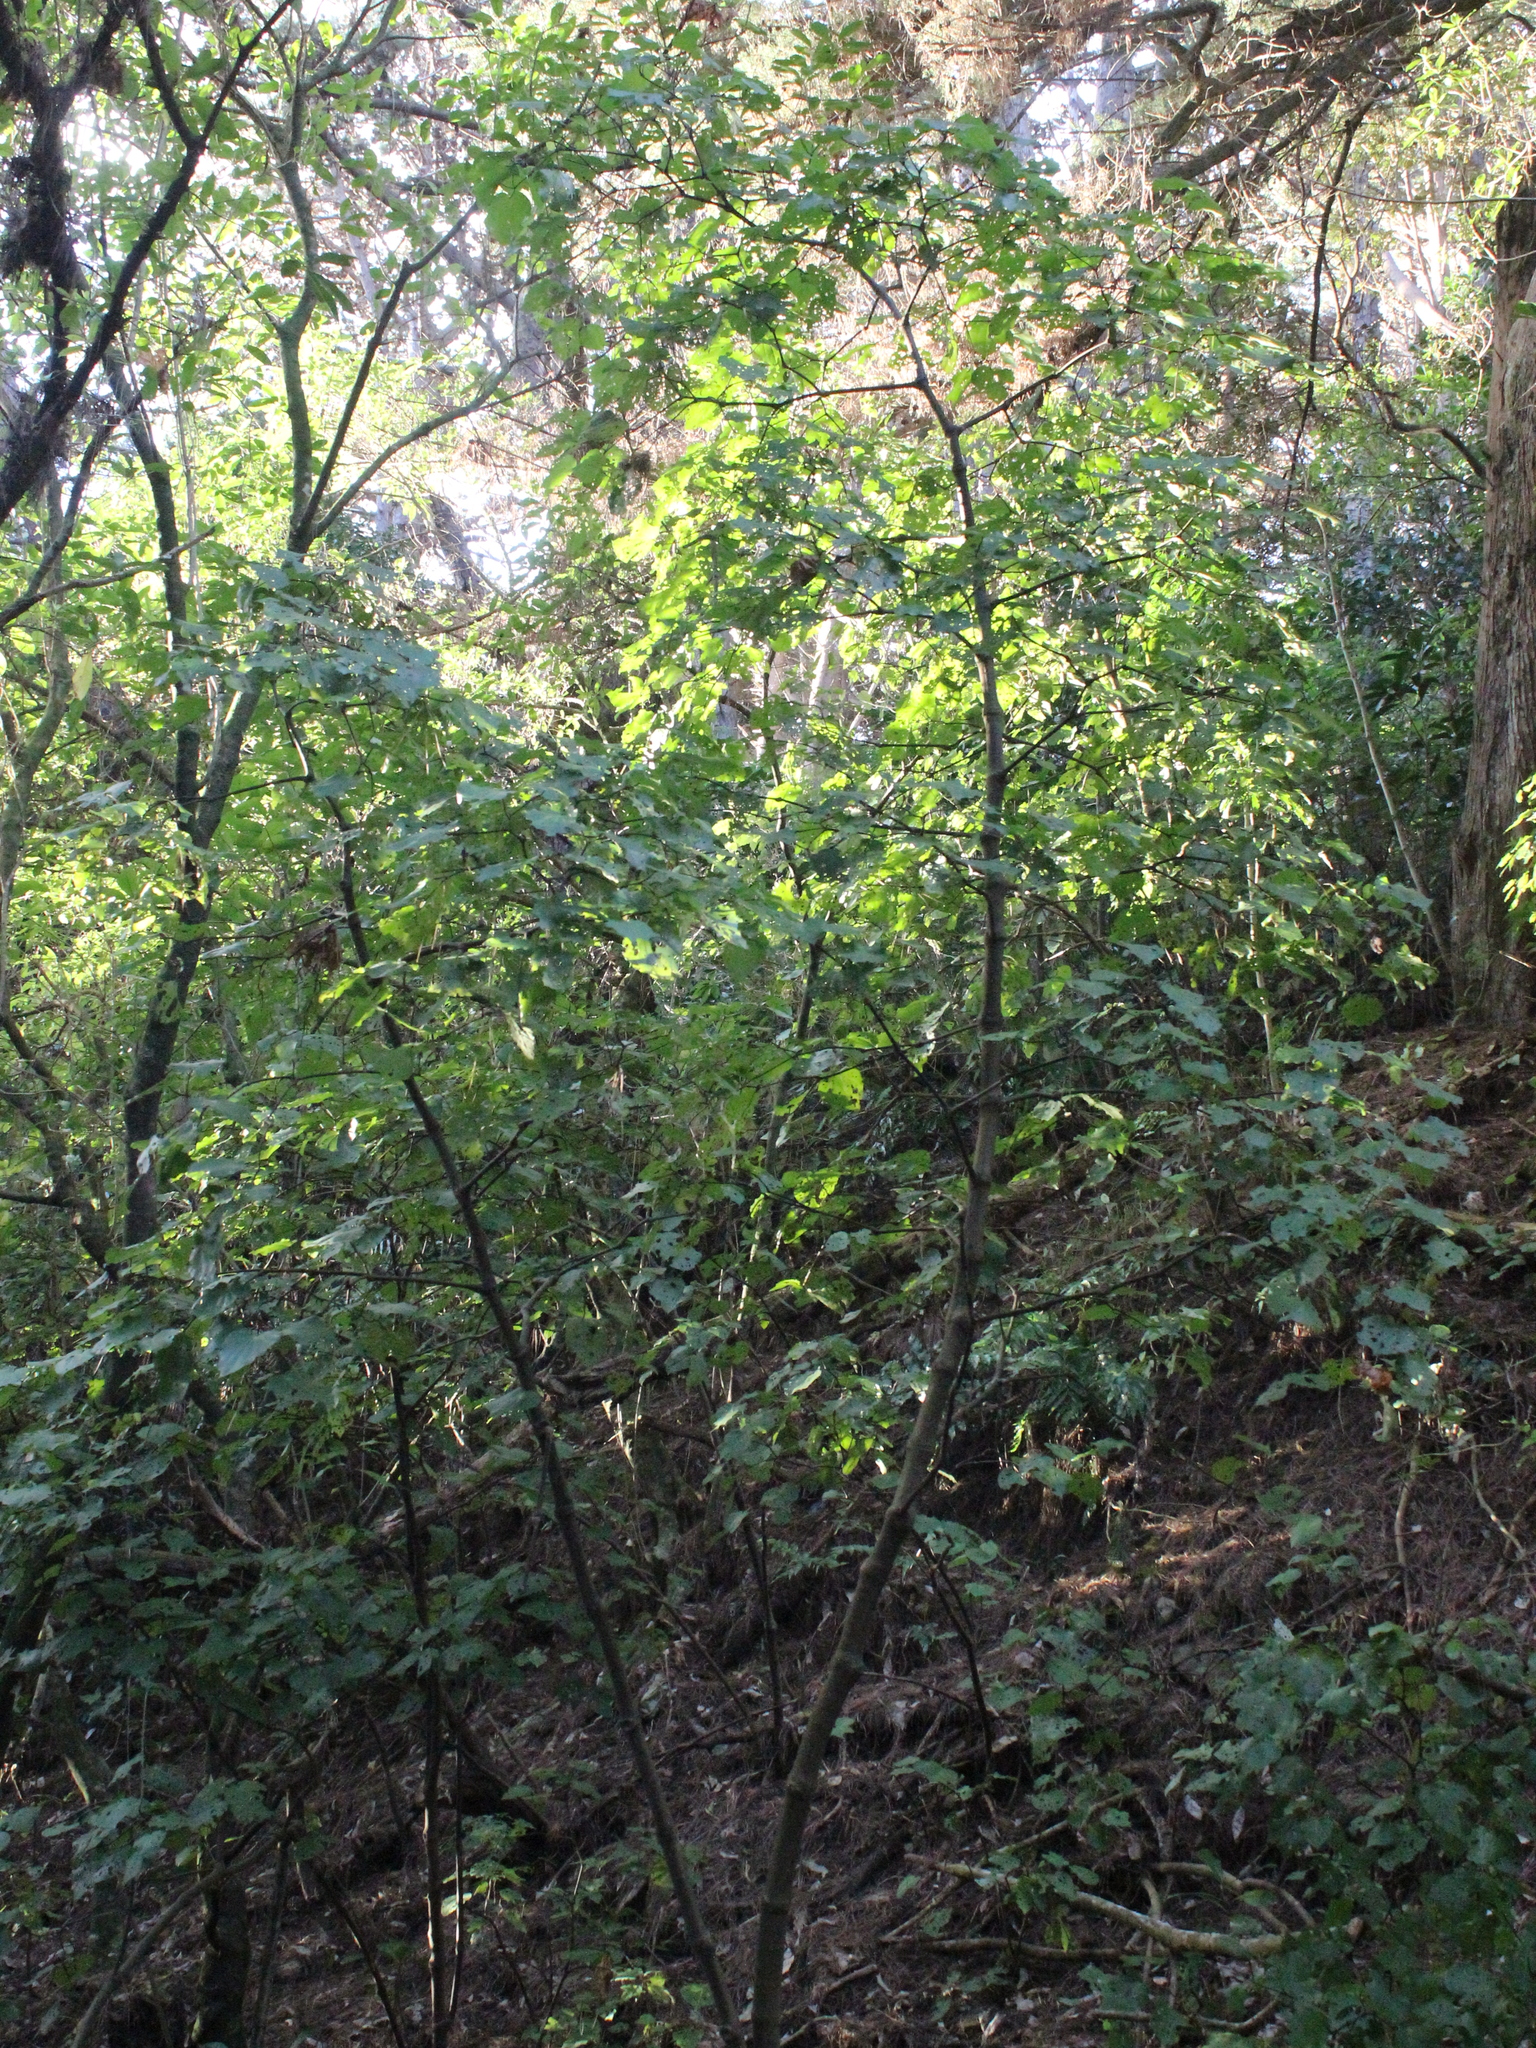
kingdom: Plantae
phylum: Tracheophyta
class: Magnoliopsida
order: Piperales
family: Piperaceae
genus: Macropiper
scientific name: Macropiper excelsum
